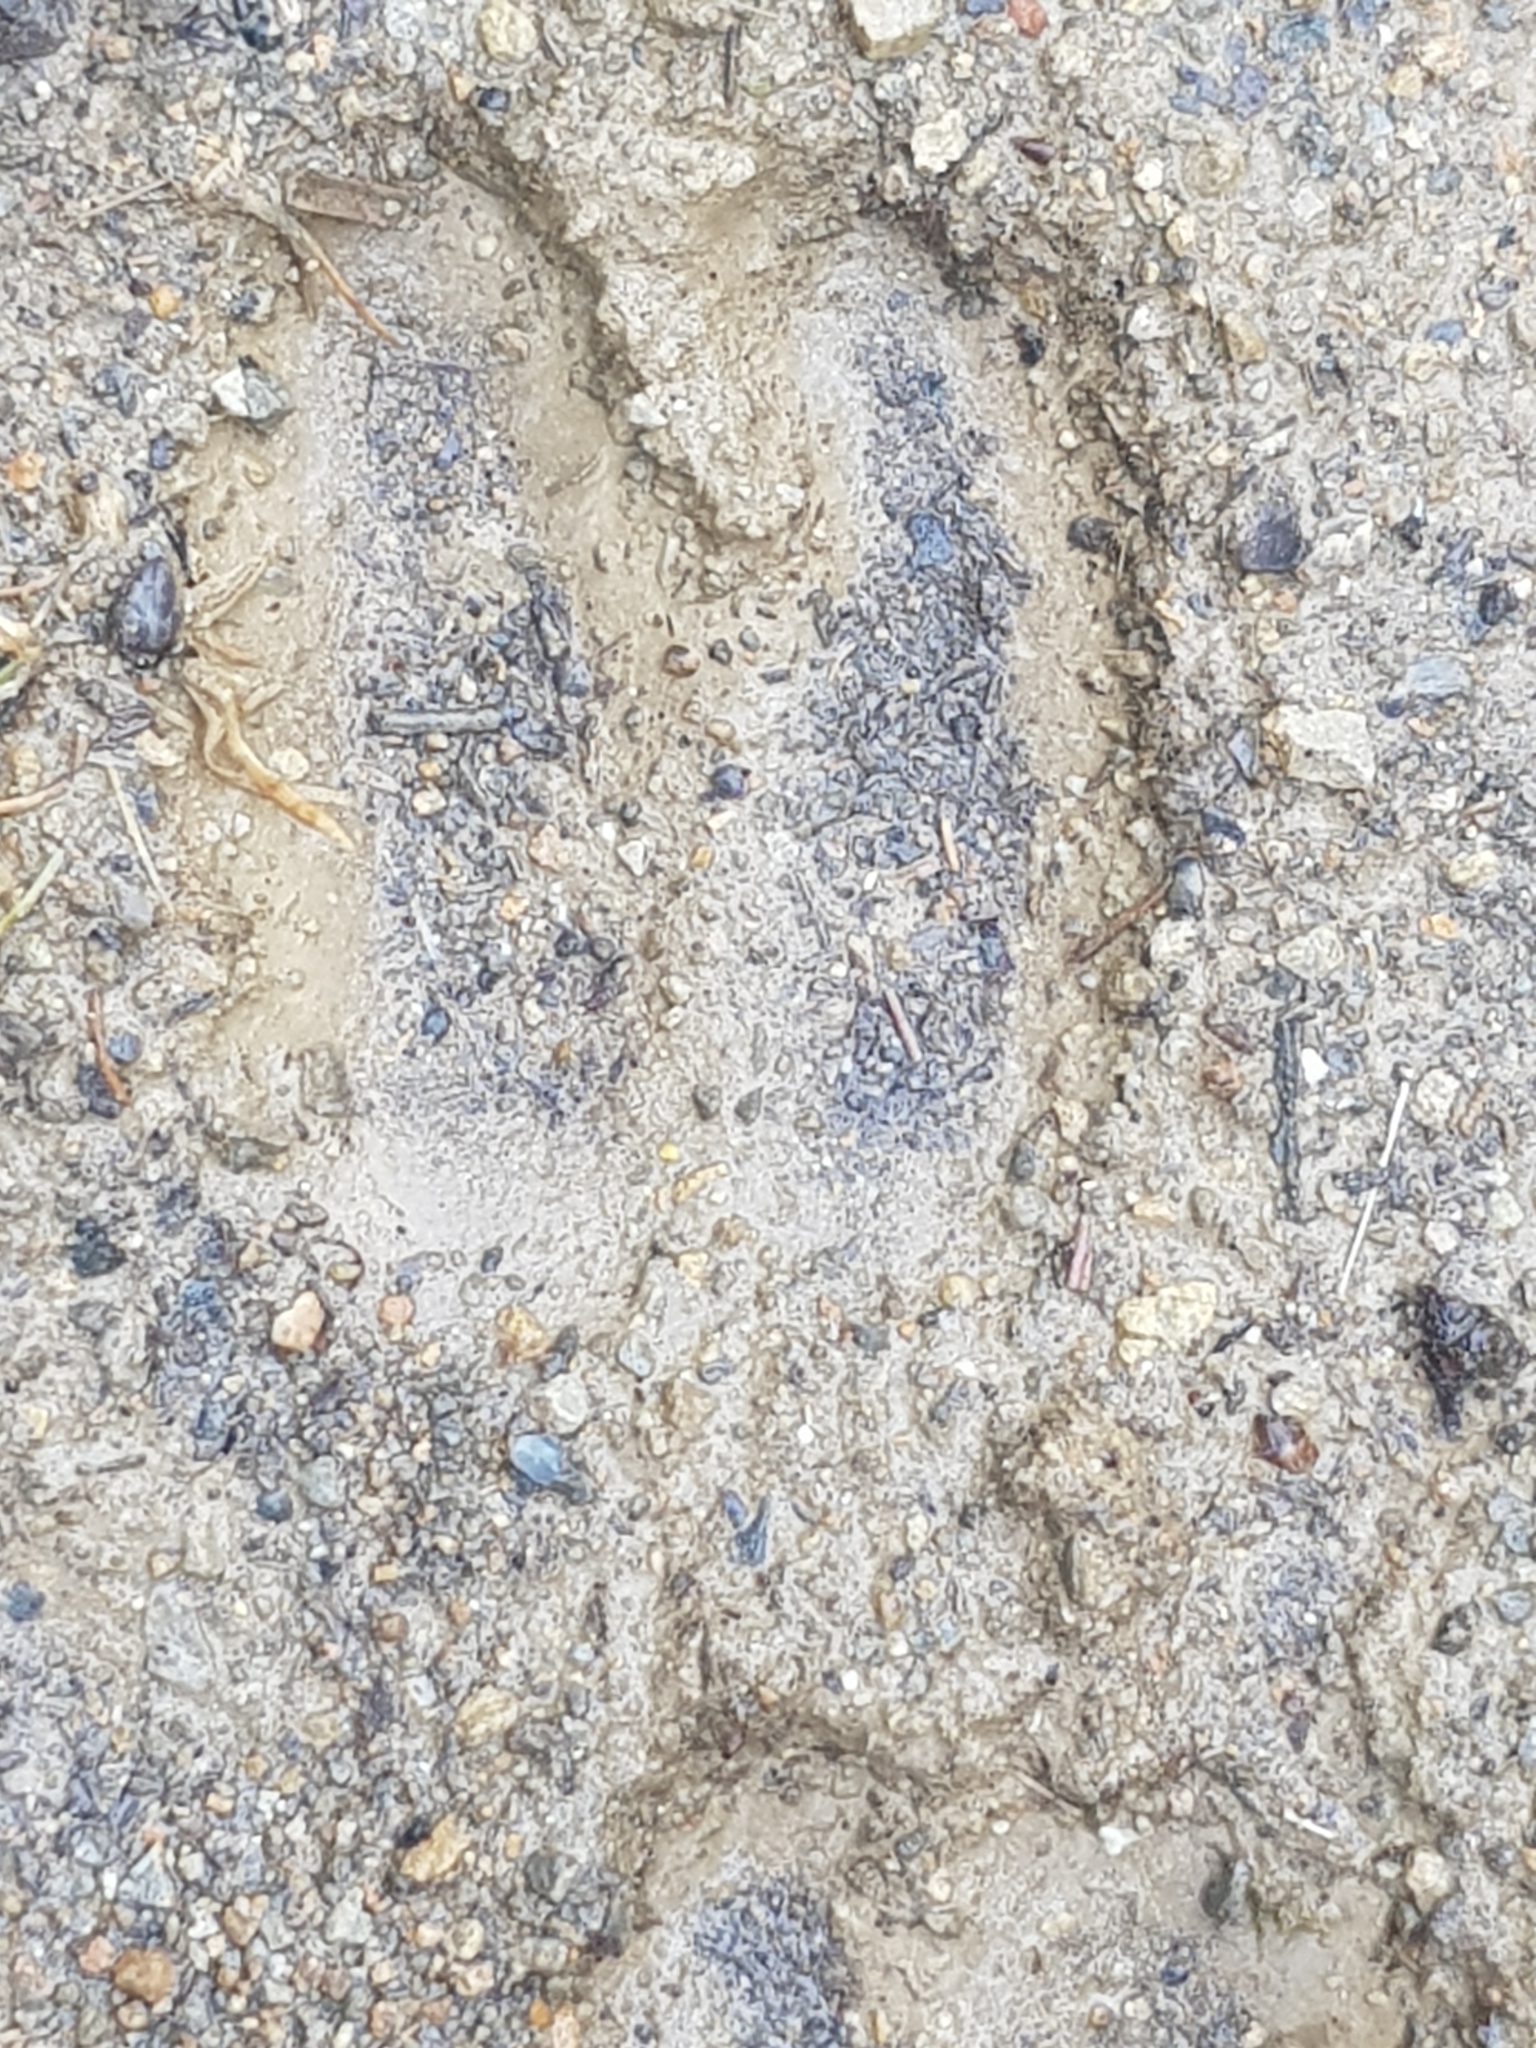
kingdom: Animalia
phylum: Chordata
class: Mammalia
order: Artiodactyla
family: Suidae
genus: Sus
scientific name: Sus scrofa
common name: Wild boar
